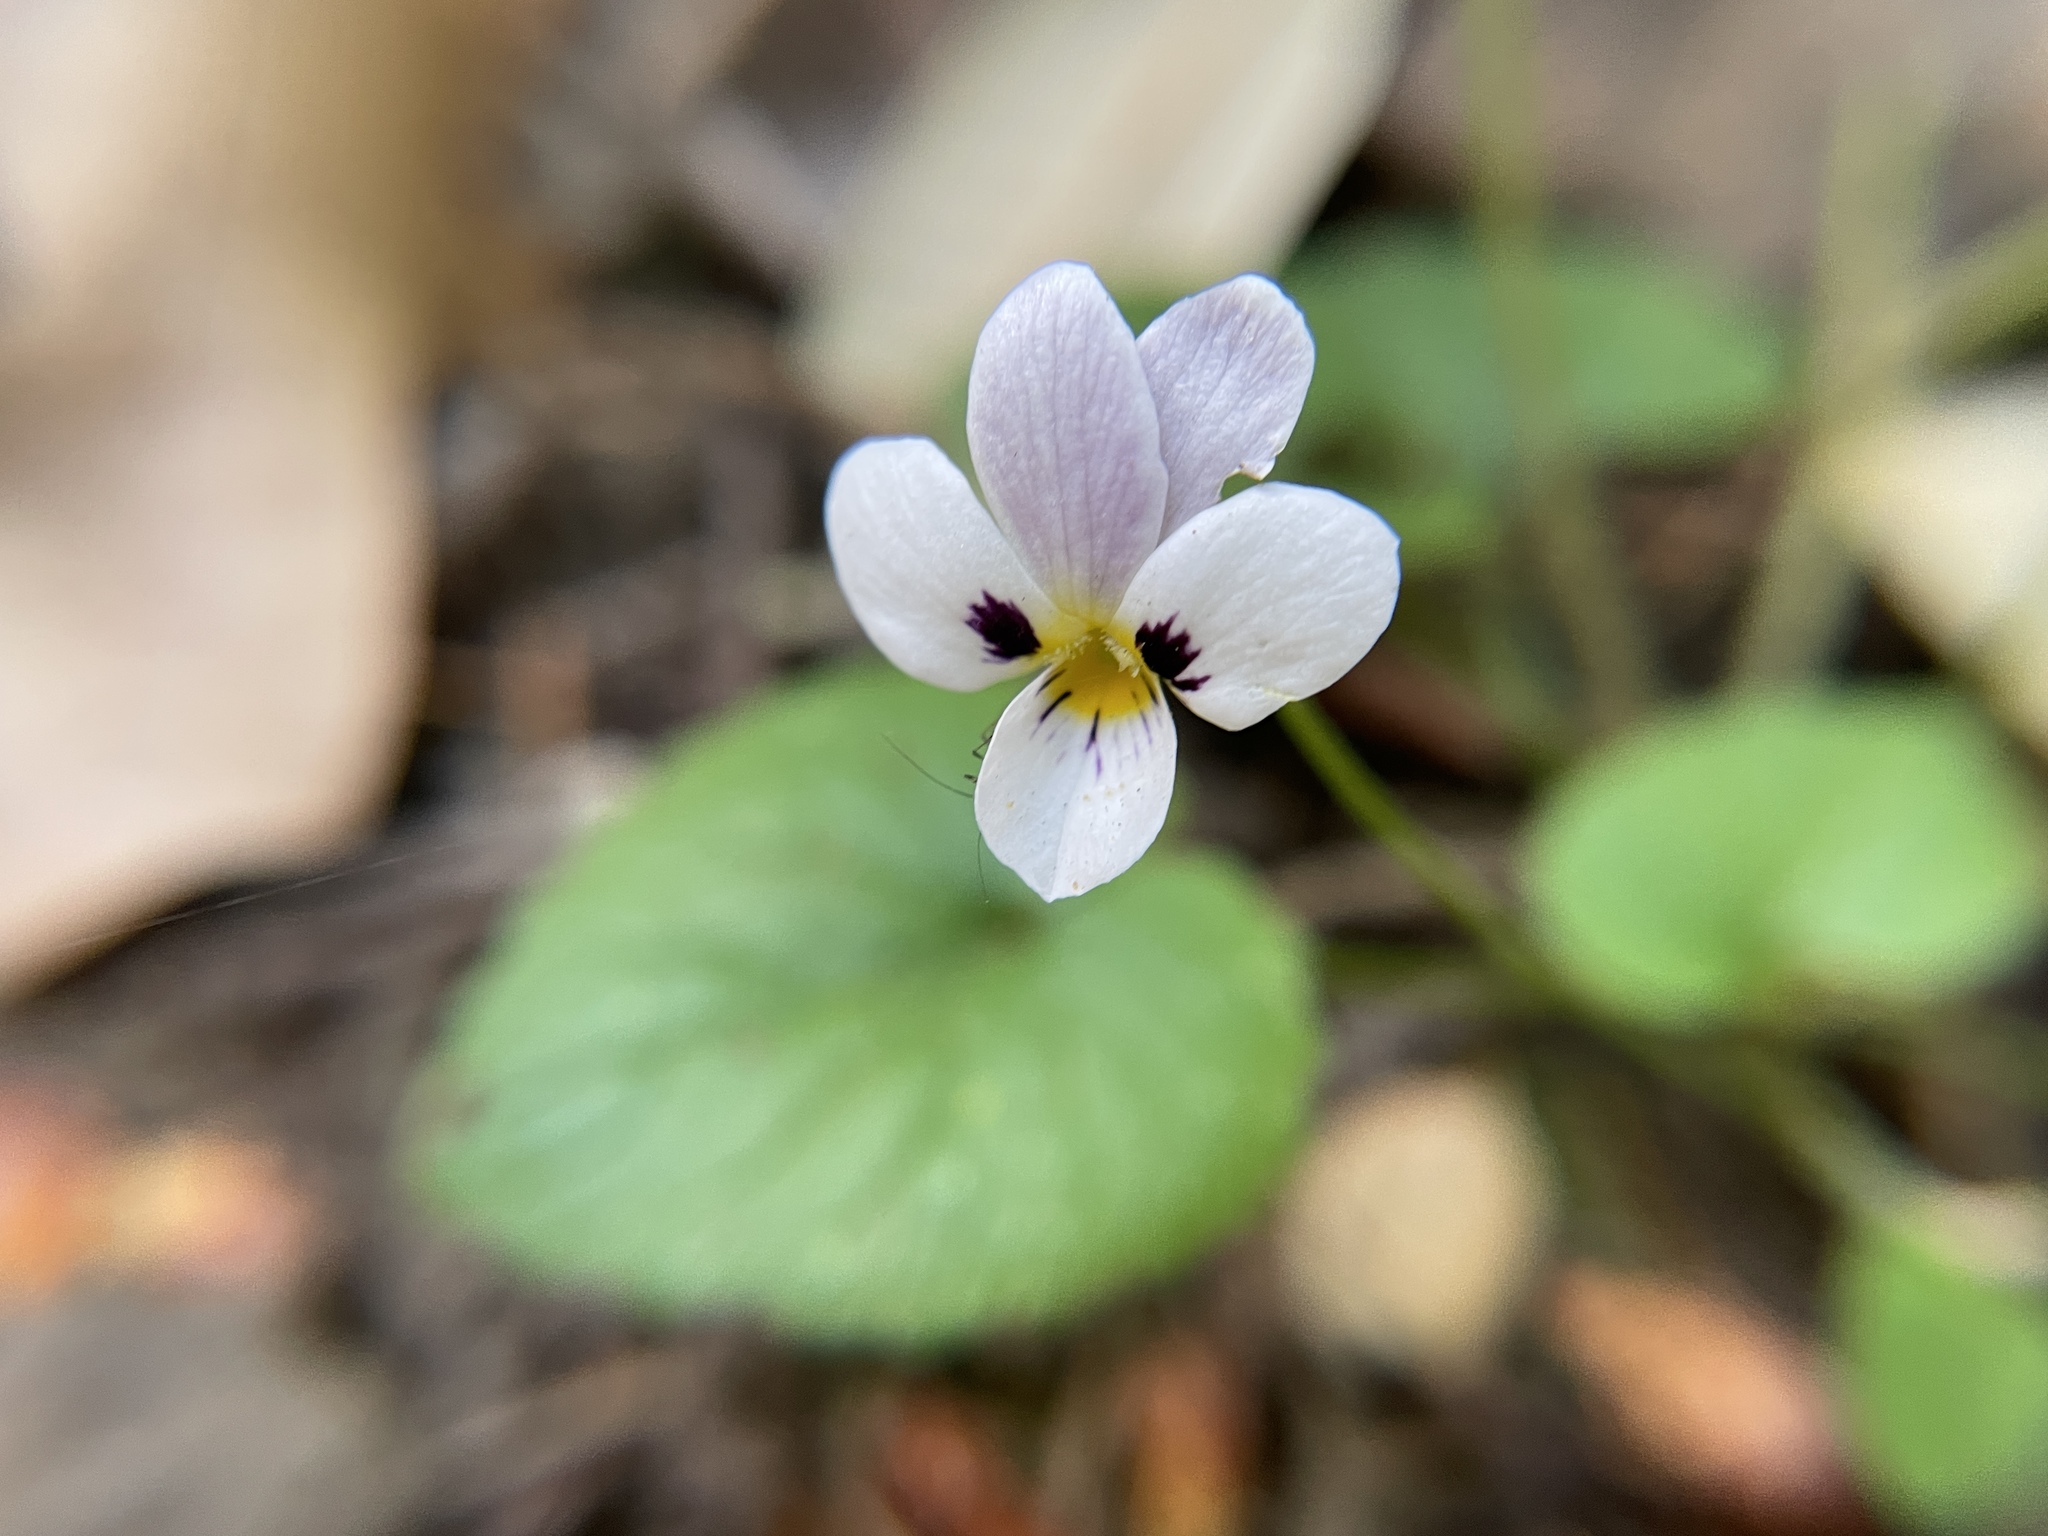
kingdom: Plantae
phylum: Tracheophyta
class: Magnoliopsida
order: Malpighiales
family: Violaceae
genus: Viola
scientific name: Viola ocellata
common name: Western heart's ease
